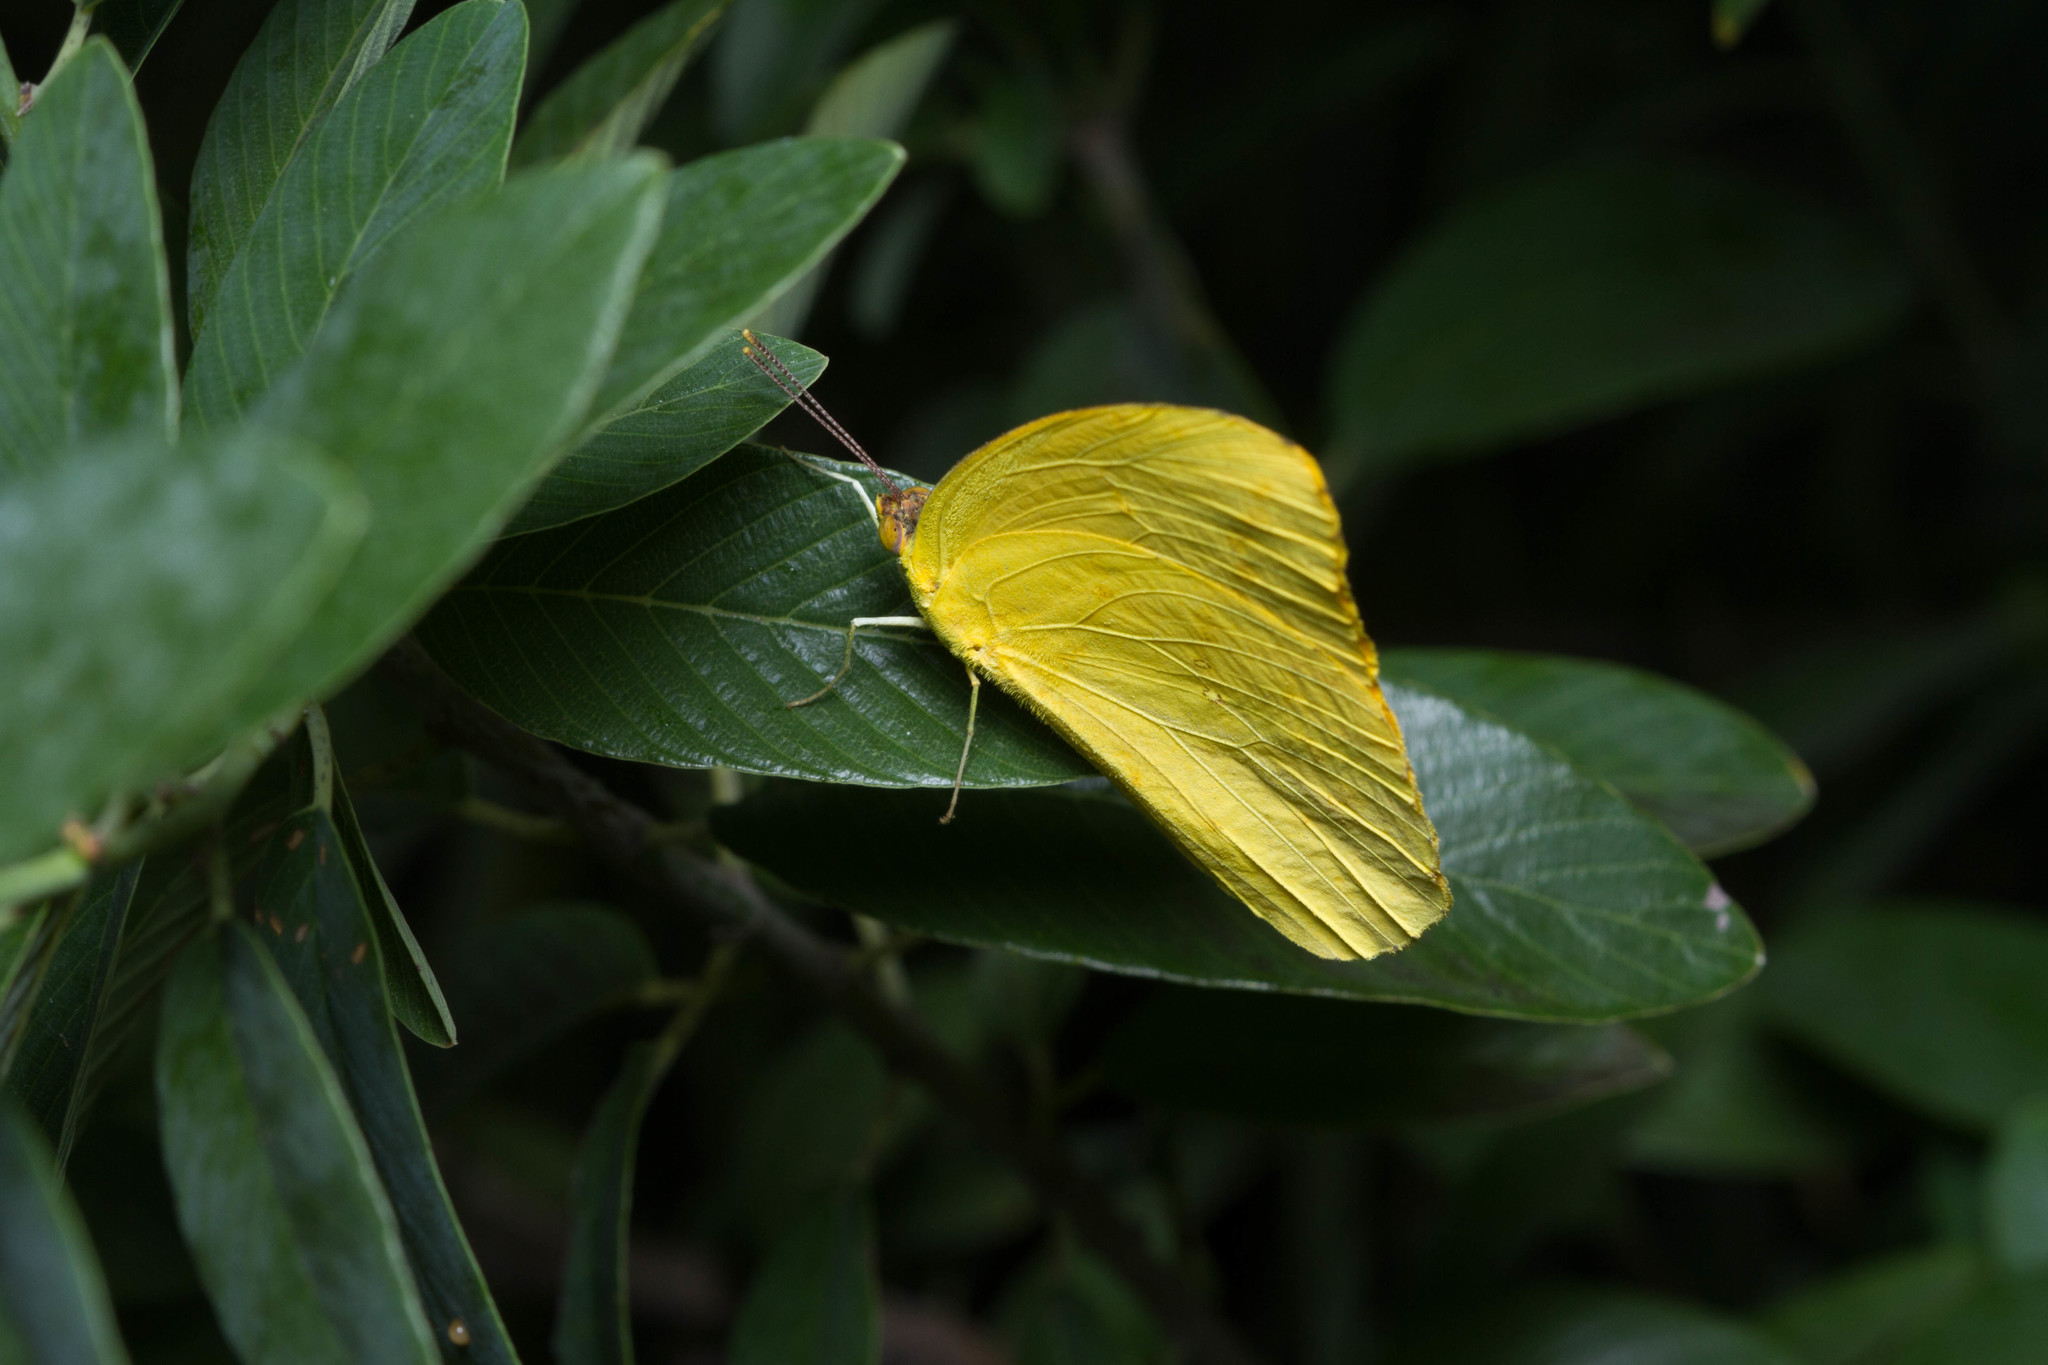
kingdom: Animalia
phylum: Arthropoda
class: Insecta
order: Lepidoptera
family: Pieridae
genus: Phoebis
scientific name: Phoebis agarithe
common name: Large orange sulphur
